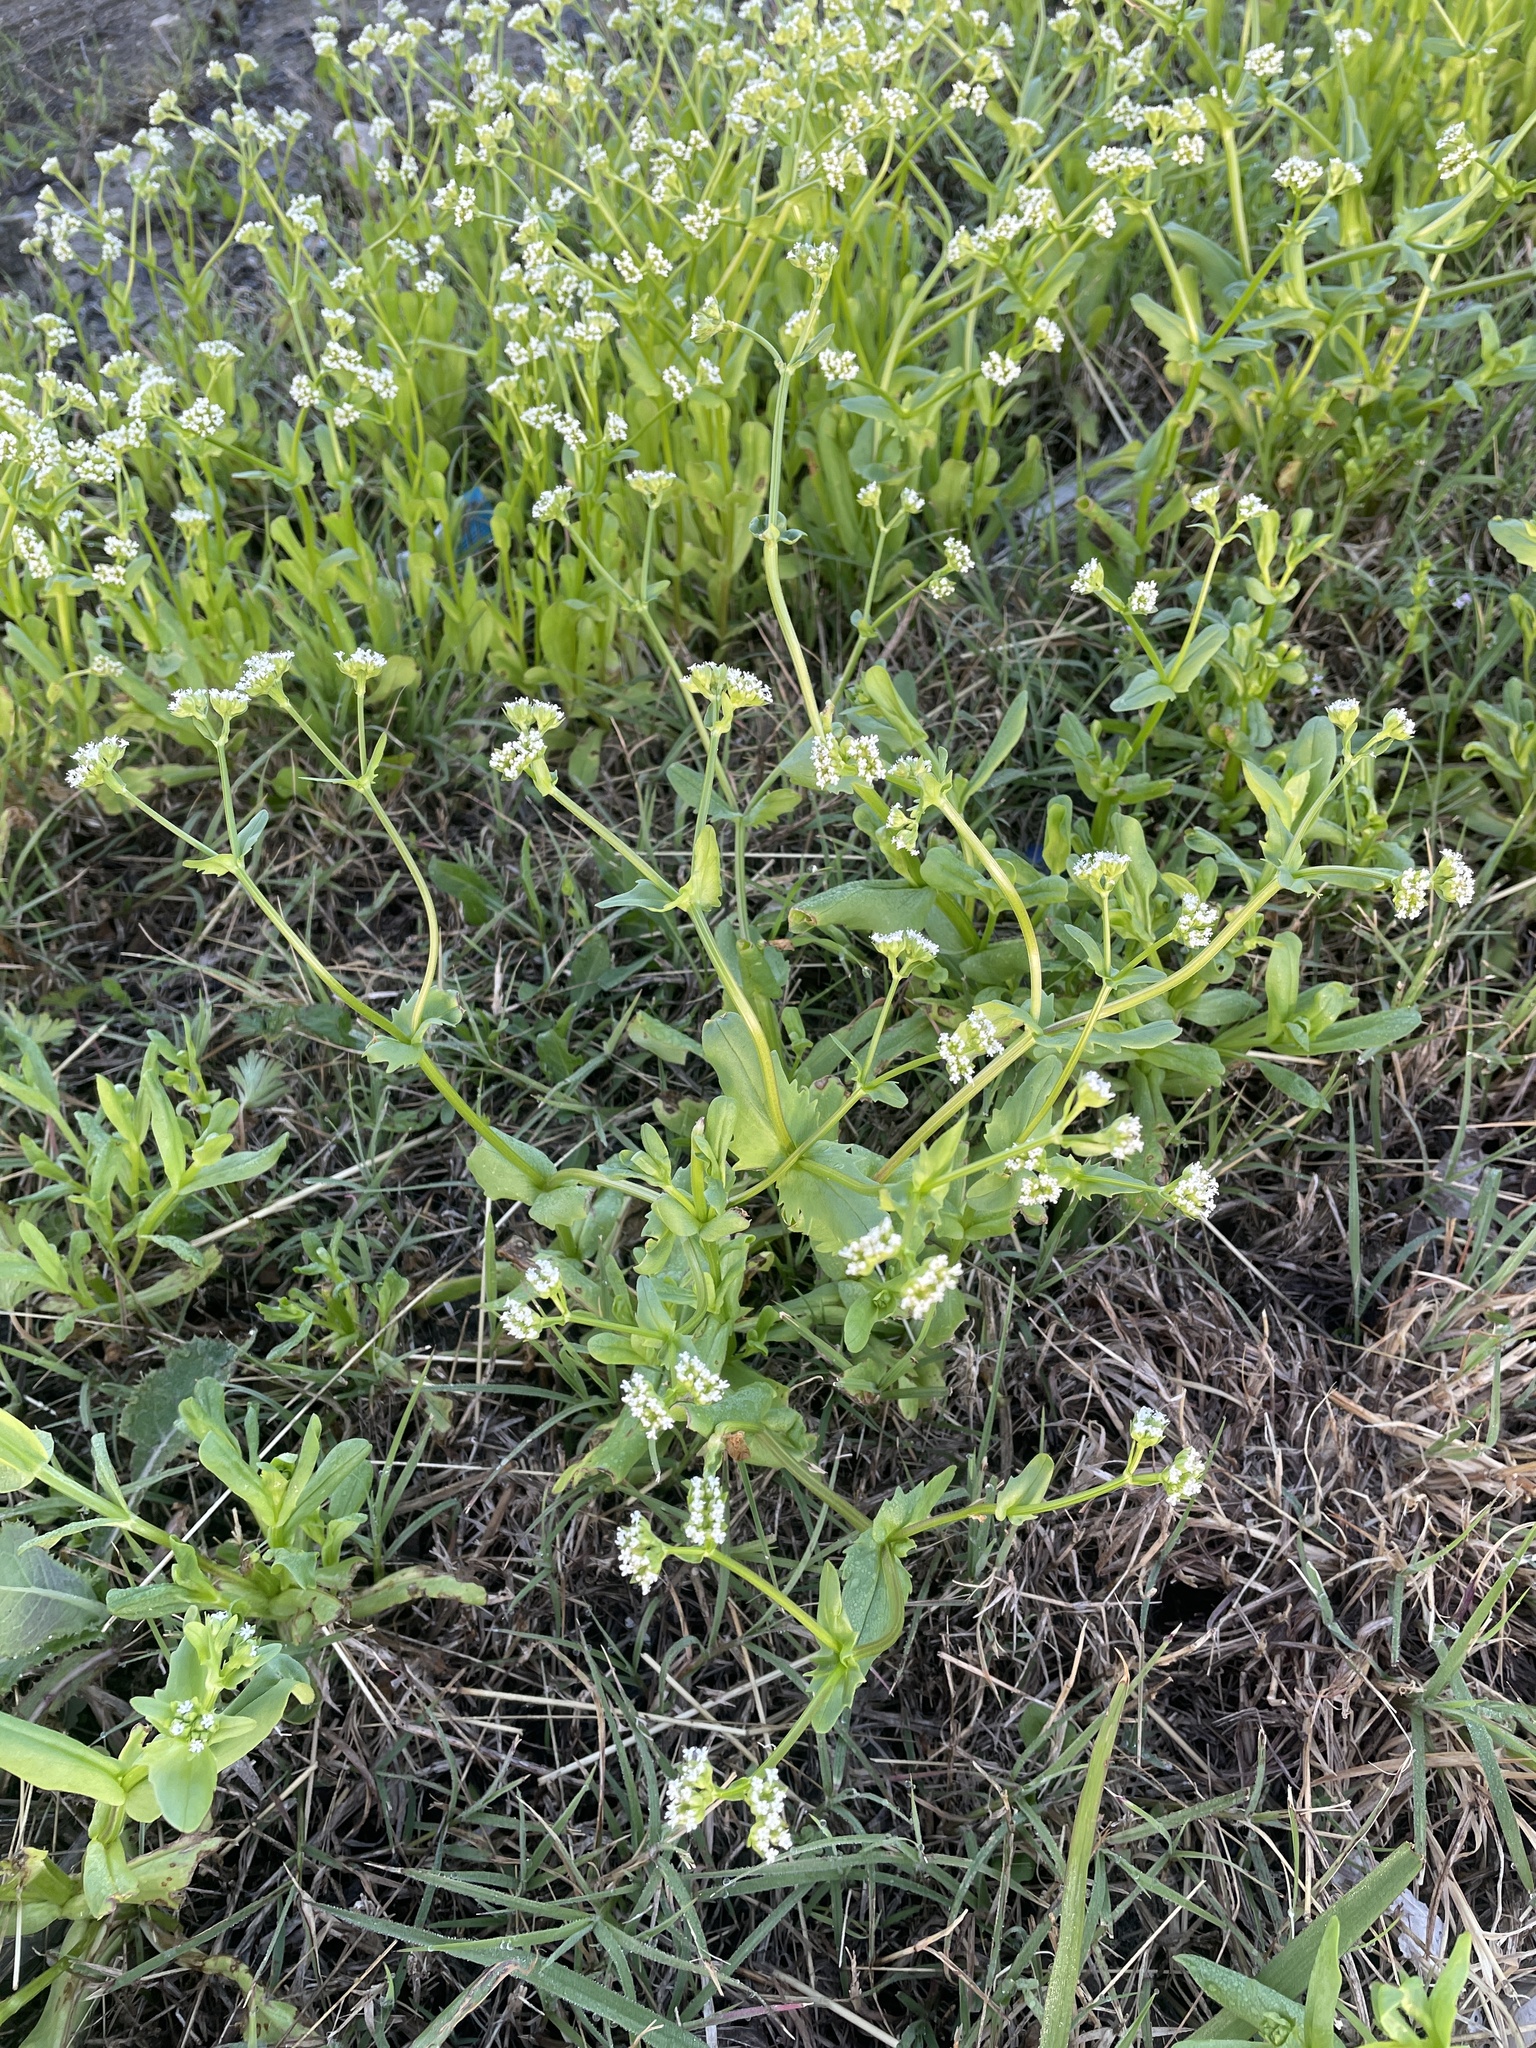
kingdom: Plantae
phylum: Tracheophyta
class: Magnoliopsida
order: Dipsacales
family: Caprifoliaceae
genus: Valerianella
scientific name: Valerianella radiata
